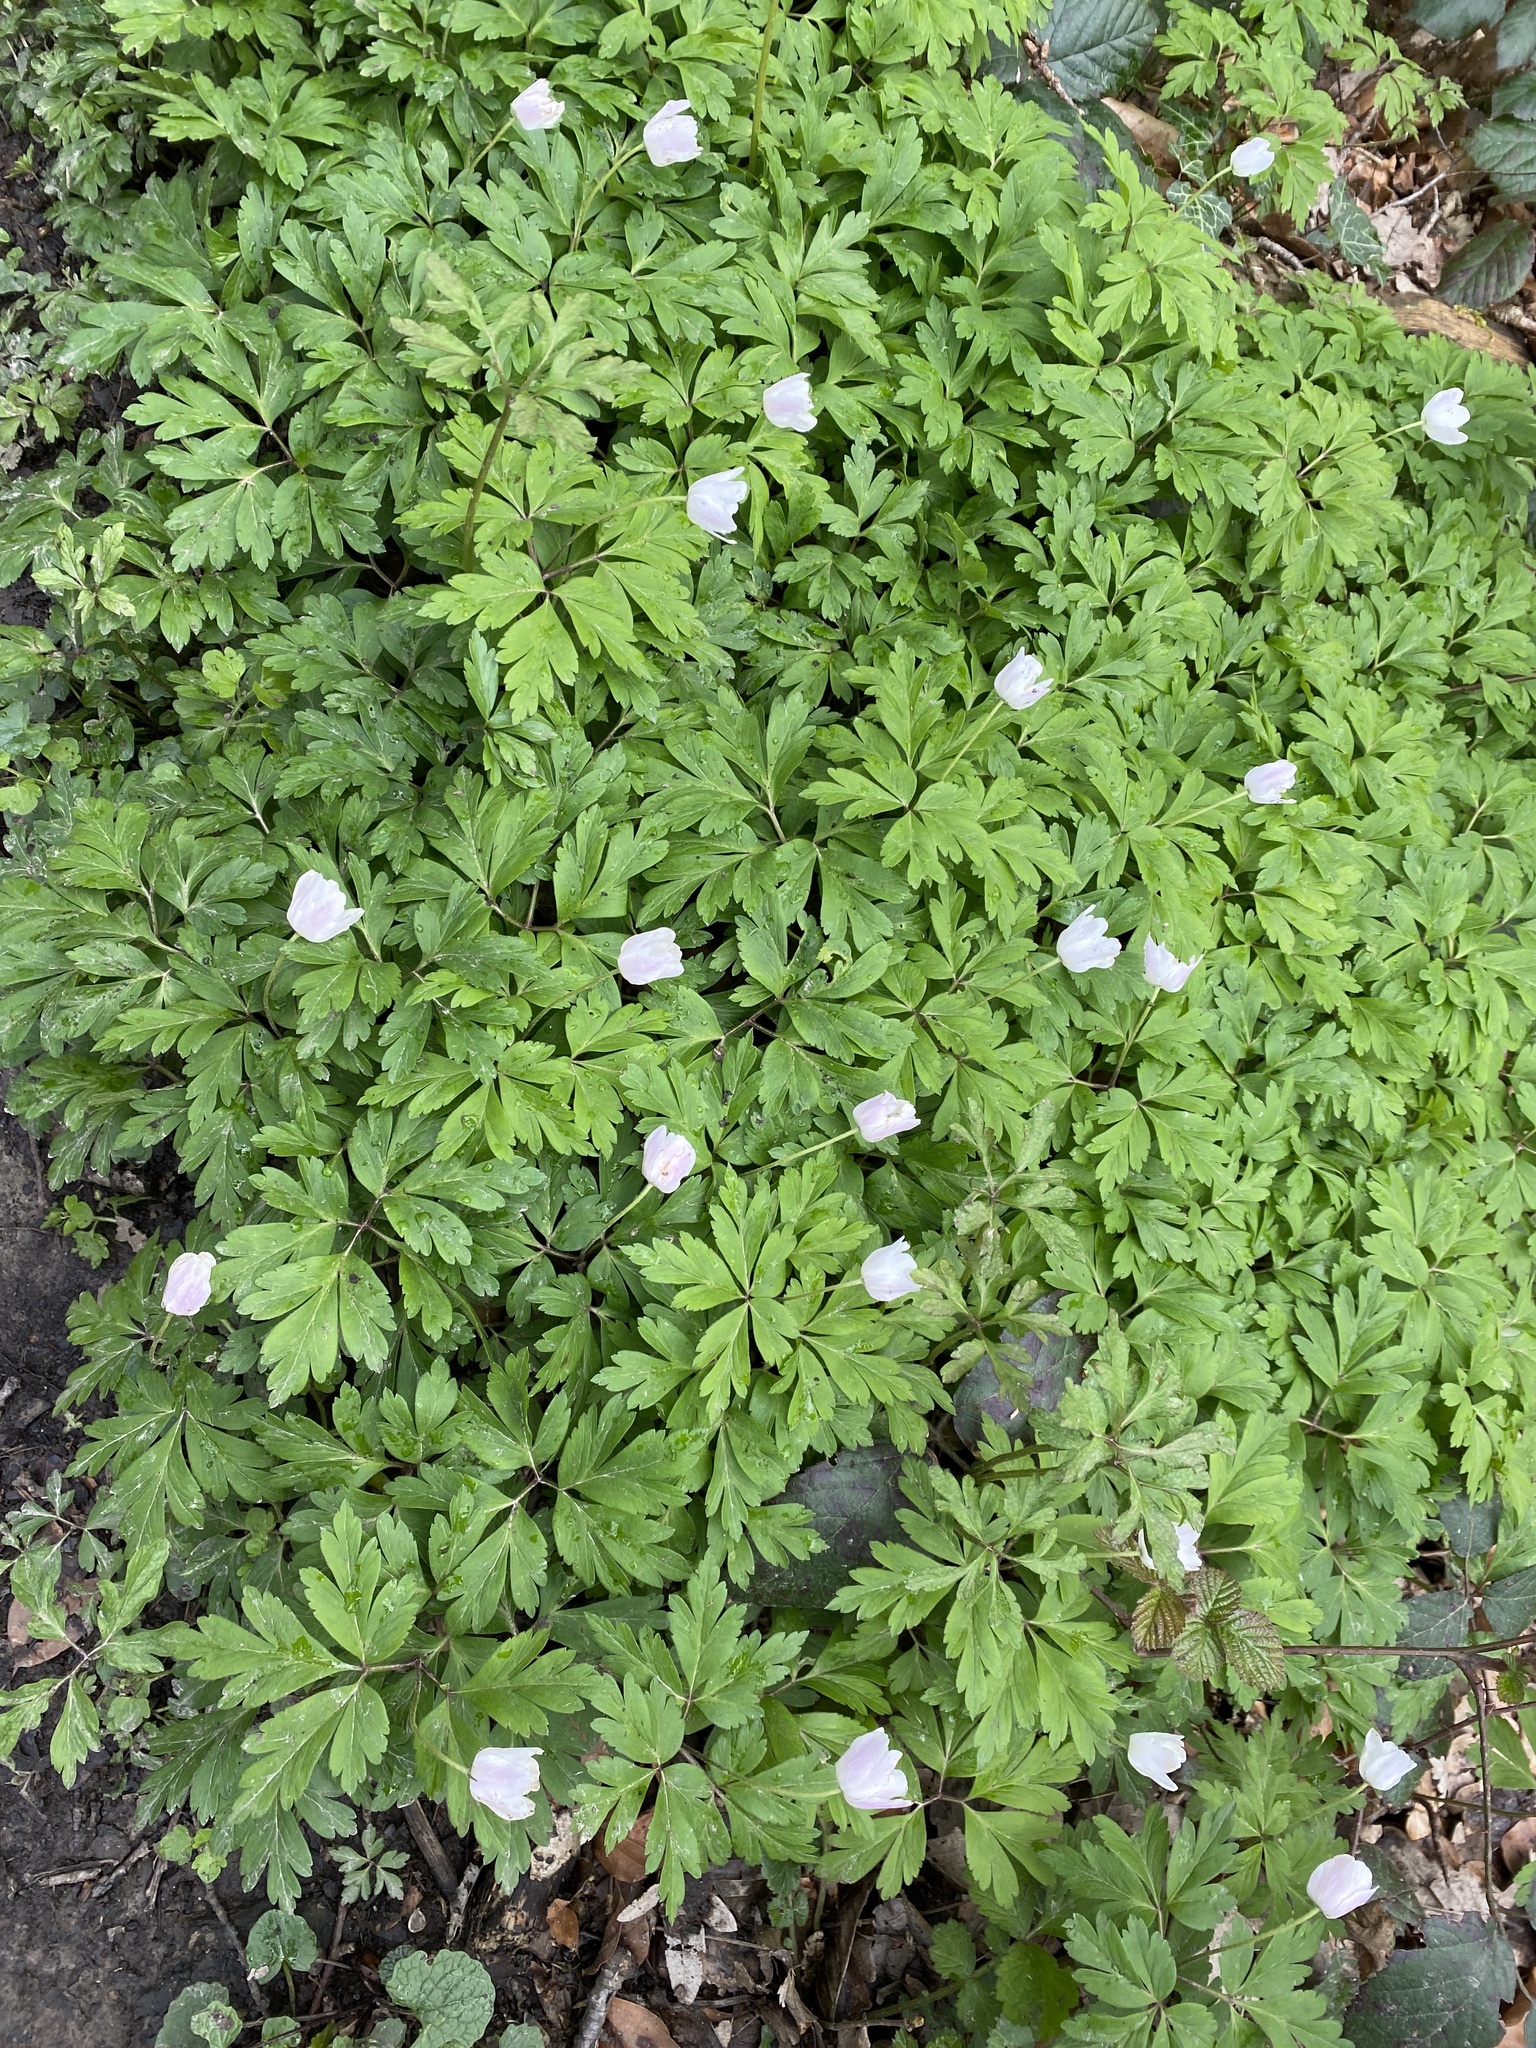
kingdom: Plantae
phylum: Tracheophyta
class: Magnoliopsida
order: Ranunculales
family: Ranunculaceae
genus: Anemone
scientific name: Anemone nemorosa
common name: Wood anemone
